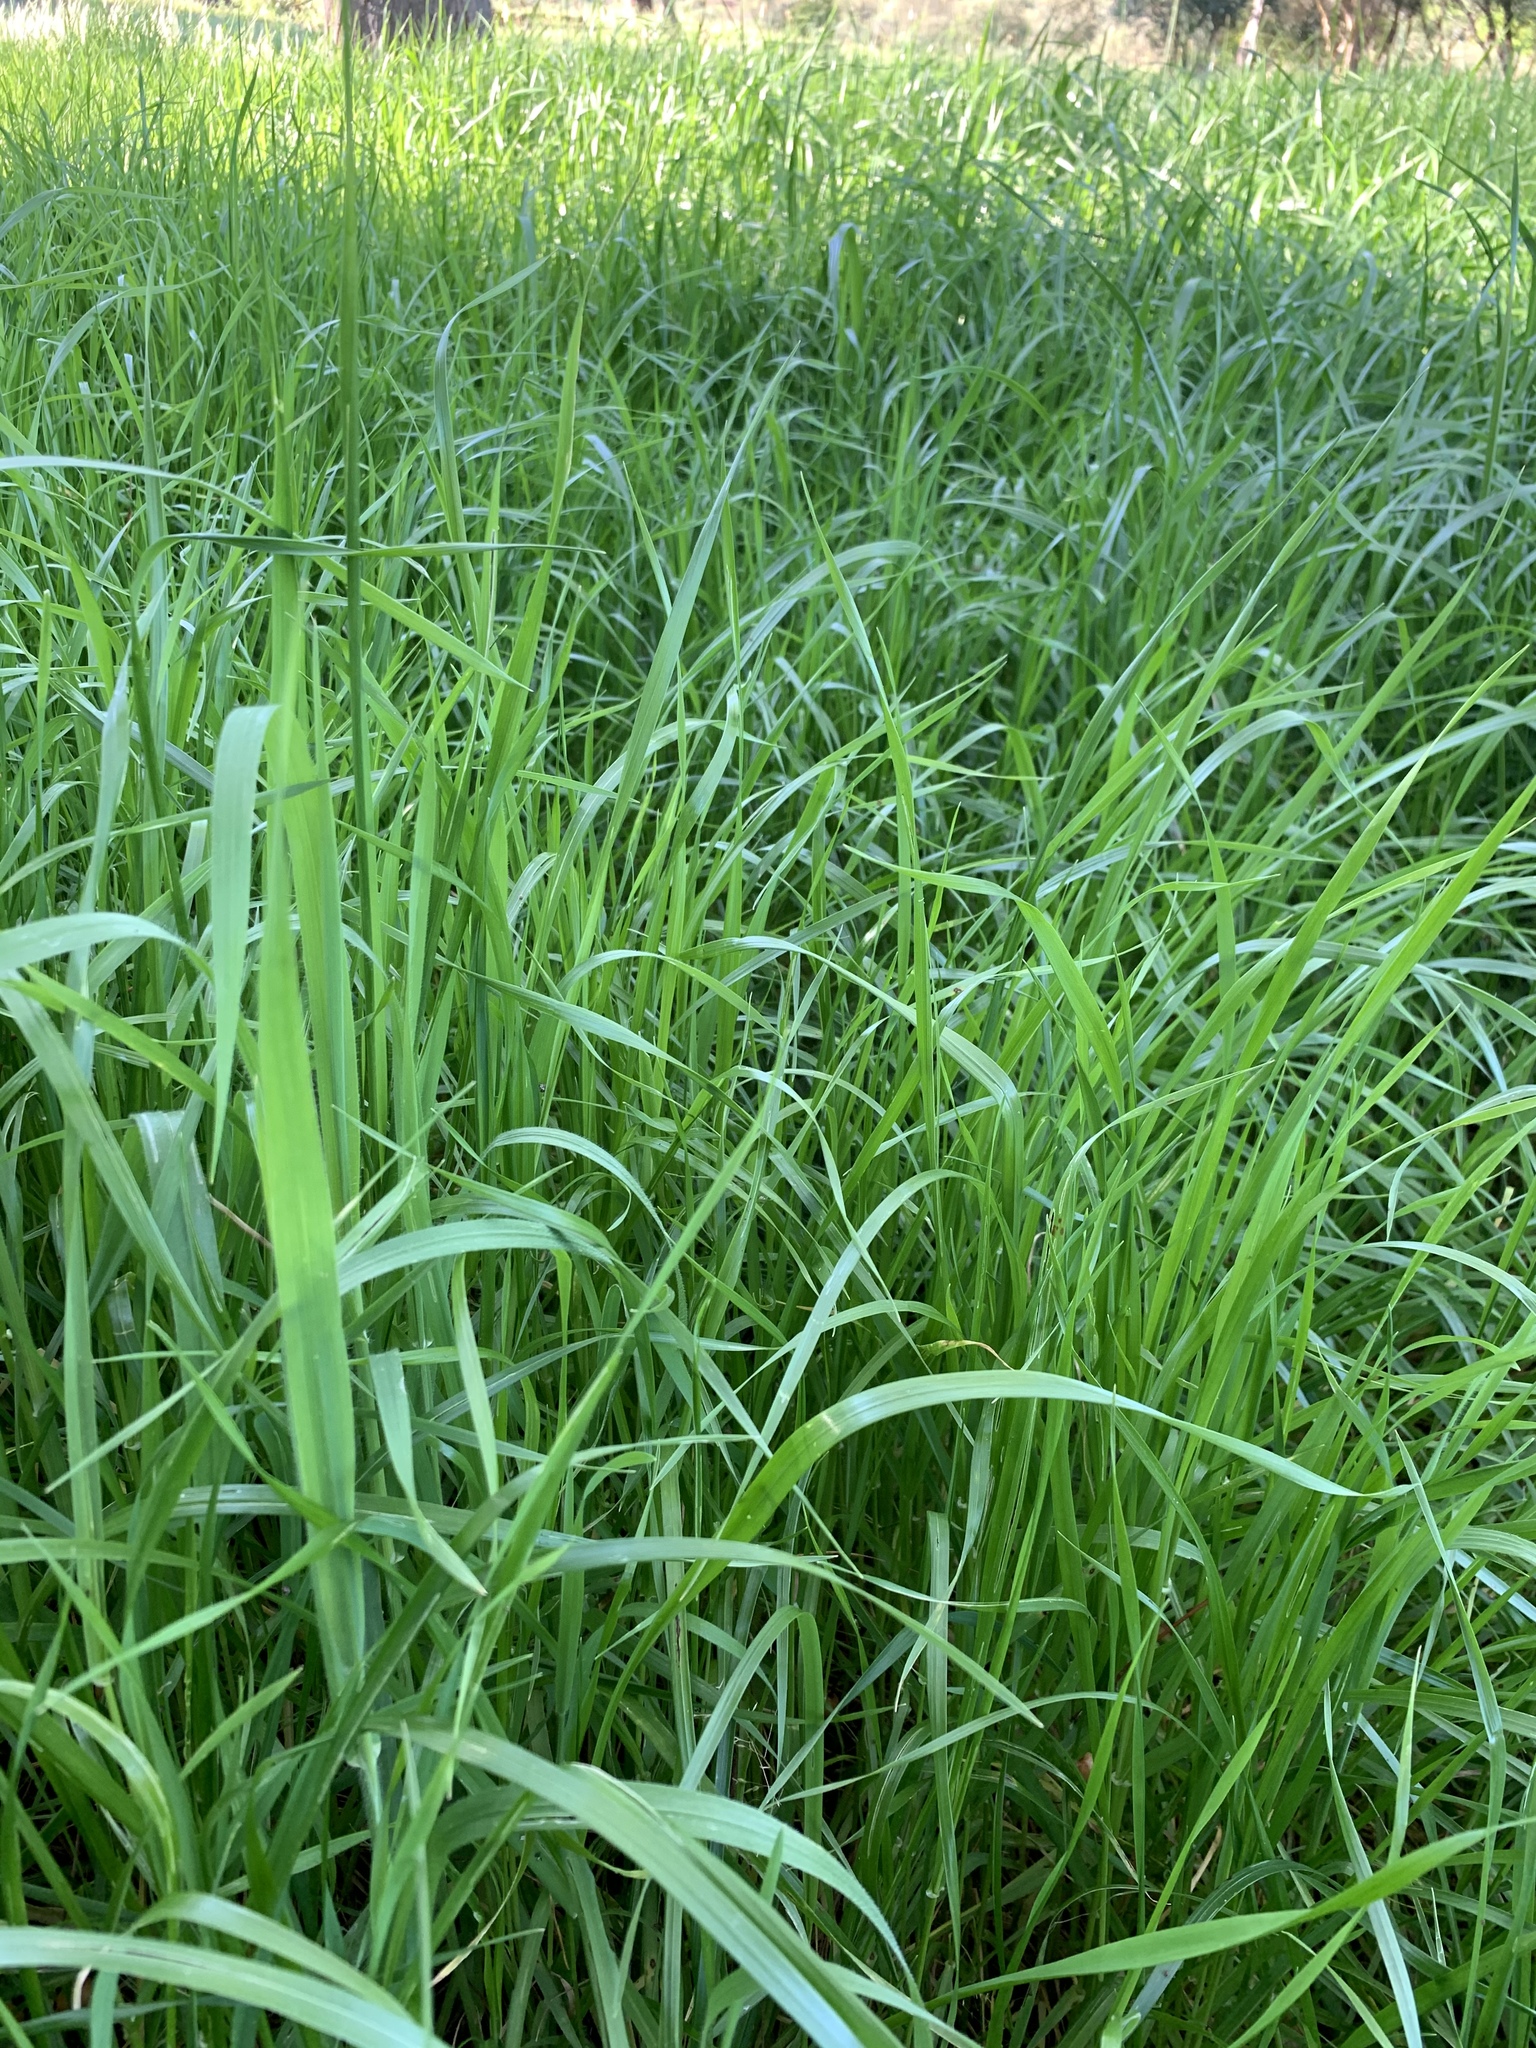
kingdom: Plantae
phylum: Tracheophyta
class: Liliopsida
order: Poales
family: Poaceae
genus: Cenchrus
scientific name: Cenchrus clandestinus
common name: Kikuyugrass
